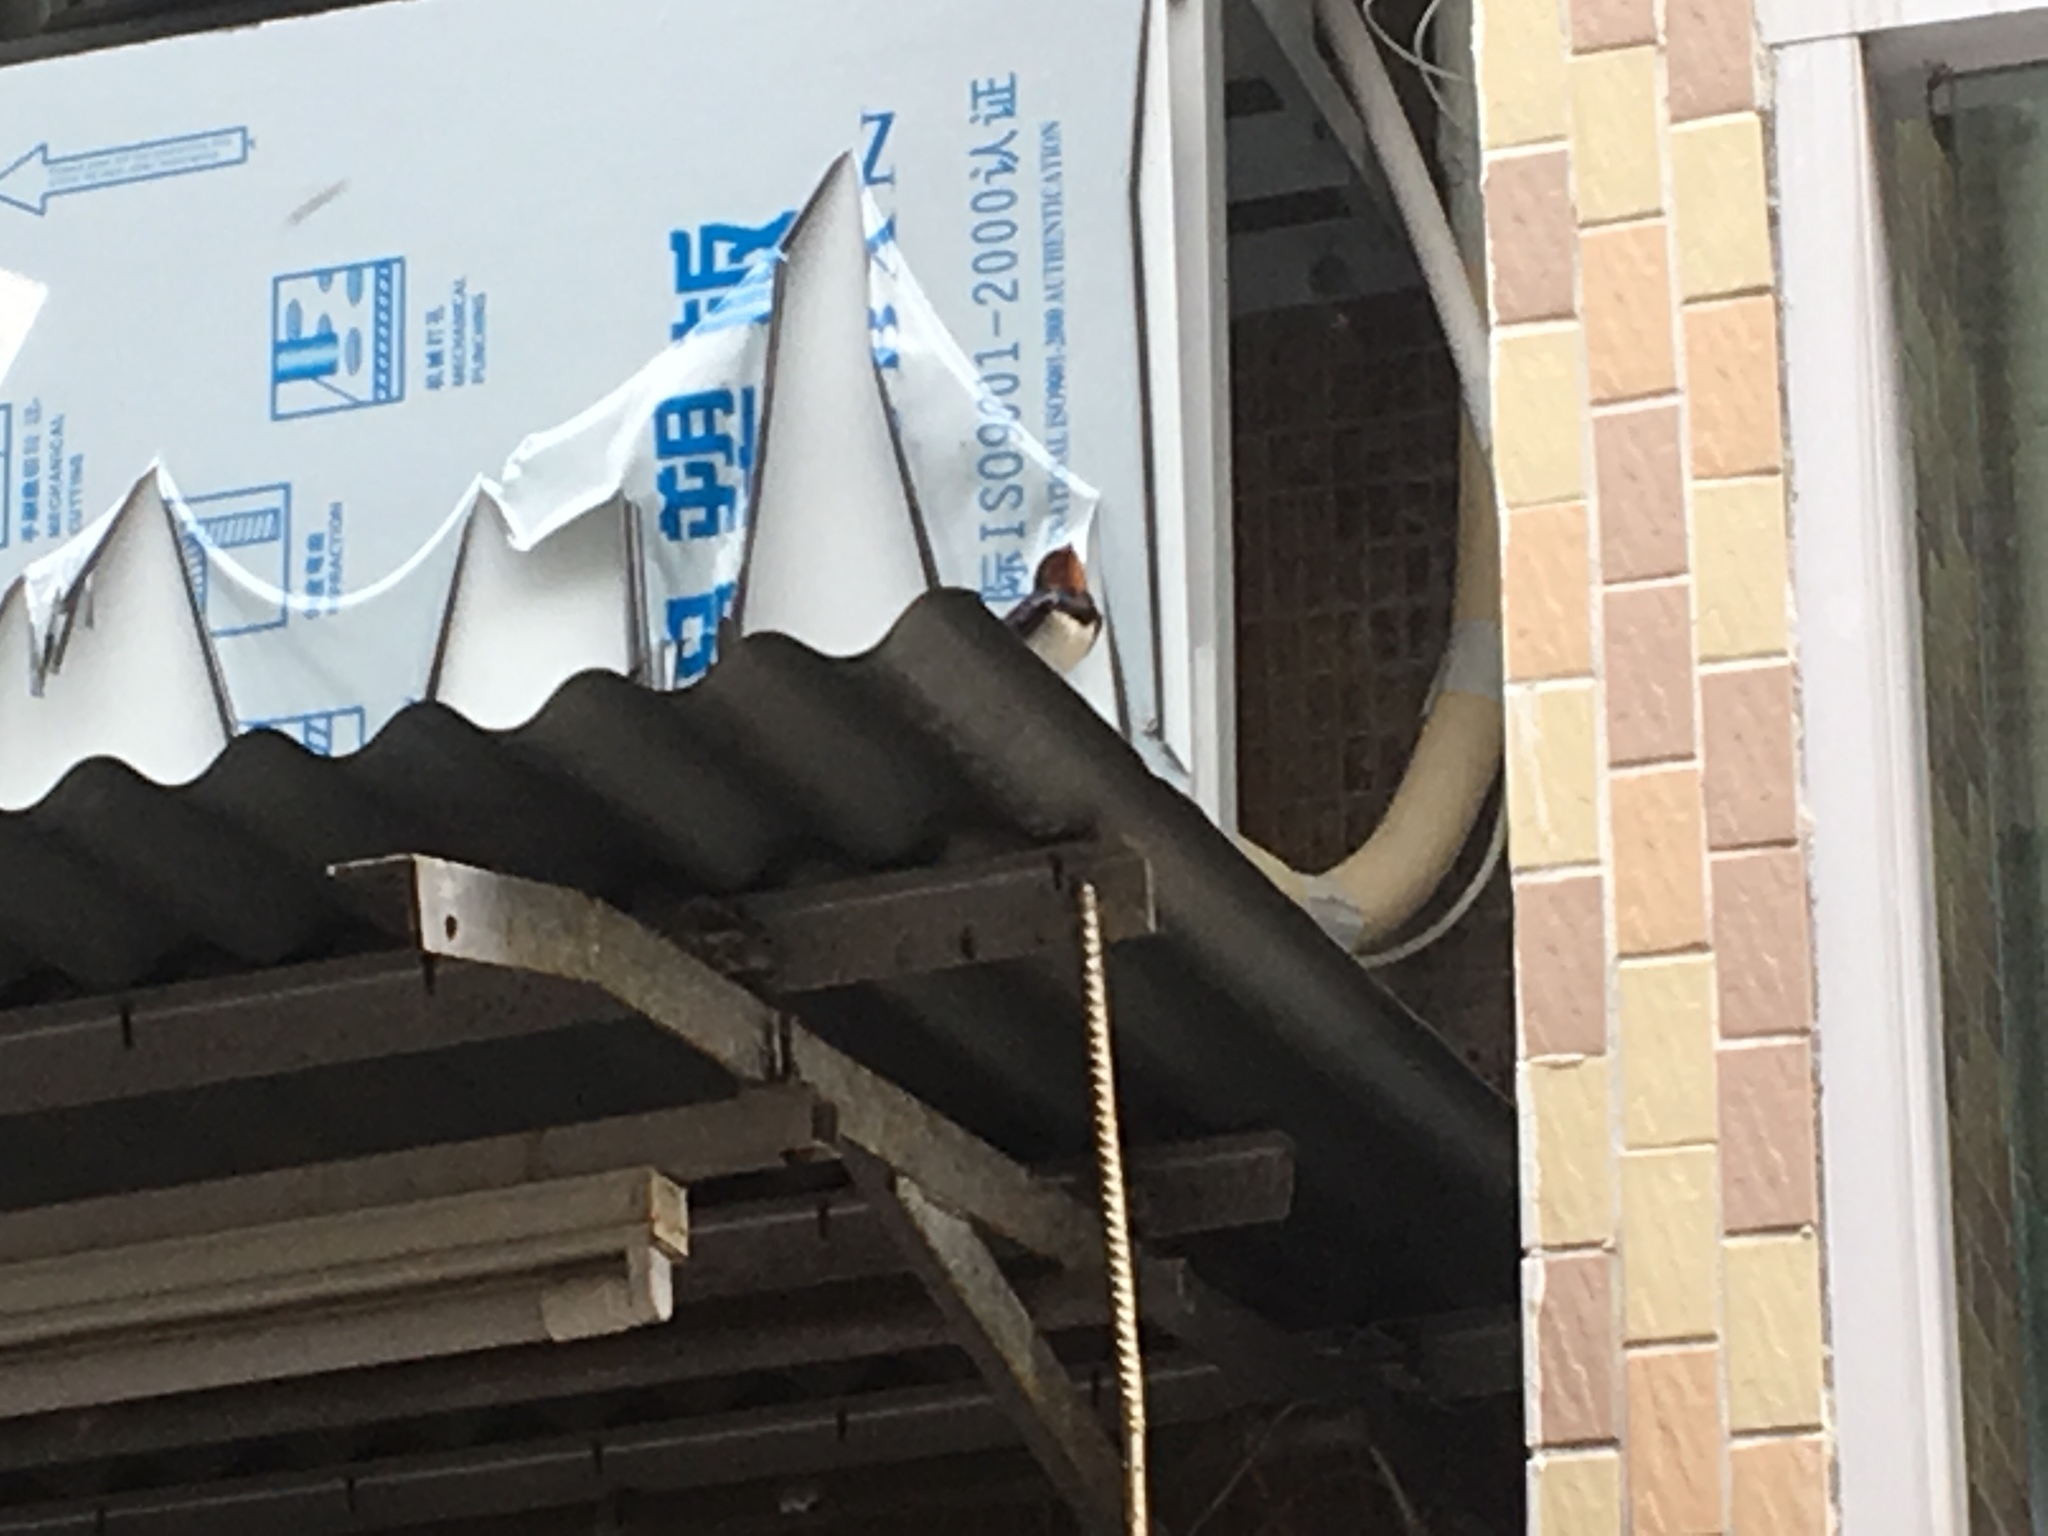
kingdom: Animalia
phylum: Chordata
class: Aves
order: Passeriformes
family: Hirundinidae
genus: Hirundo
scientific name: Hirundo rustica
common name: Barn swallow
